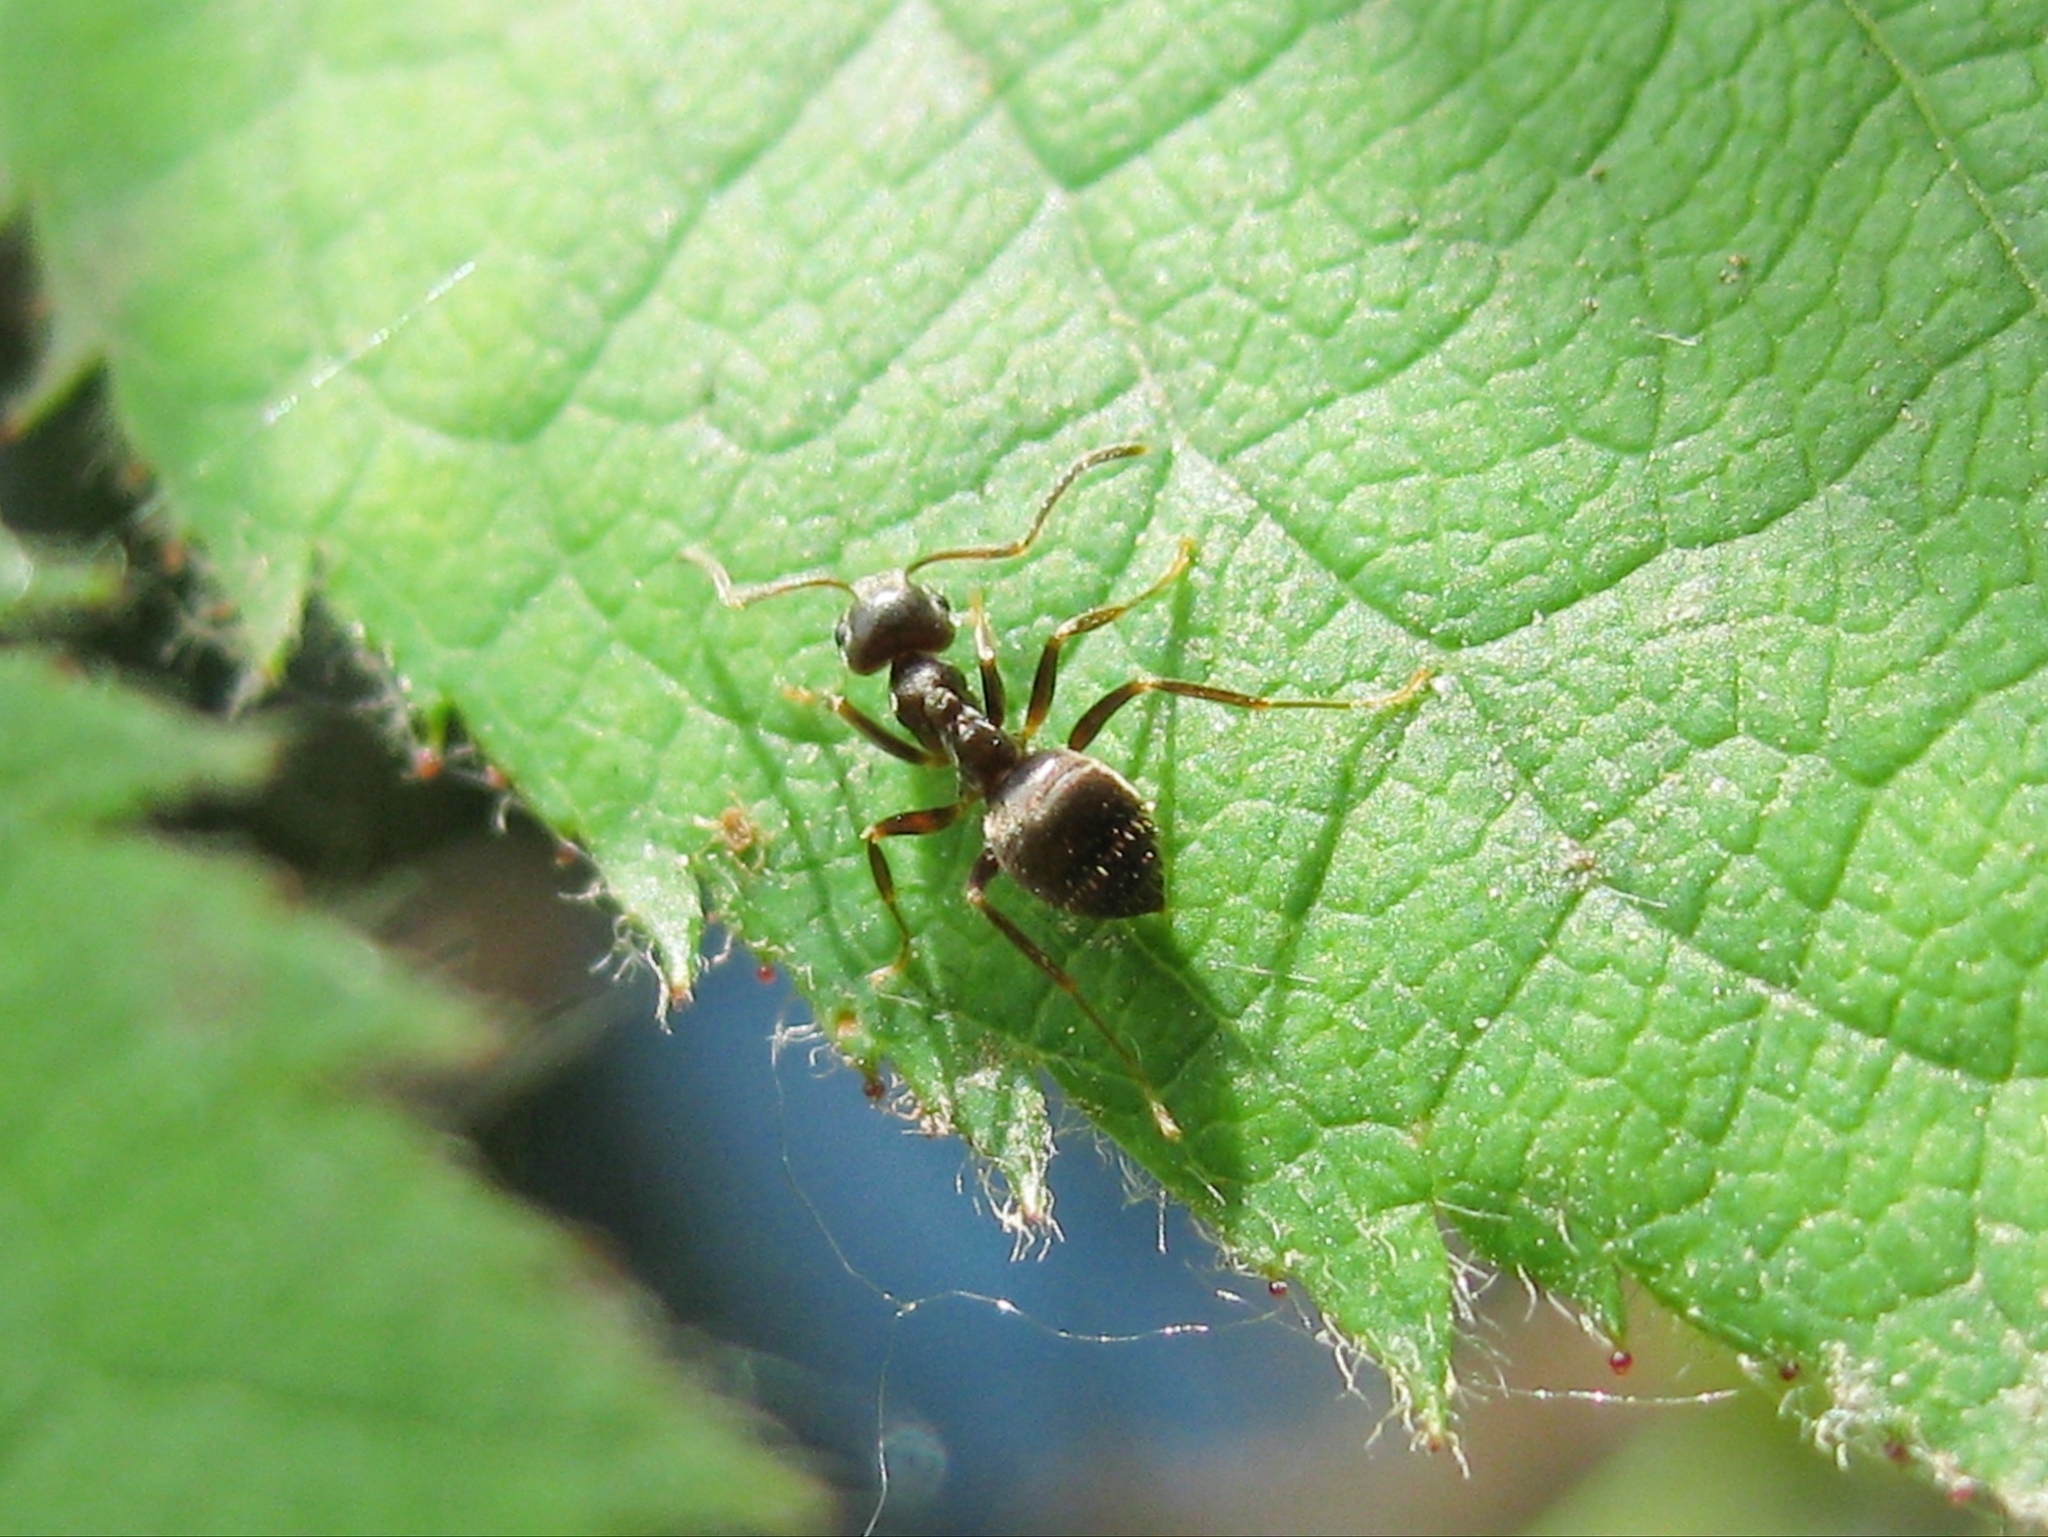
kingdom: Animalia
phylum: Arthropoda
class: Insecta
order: Hymenoptera
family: Formicidae
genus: Lasius
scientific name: Lasius
